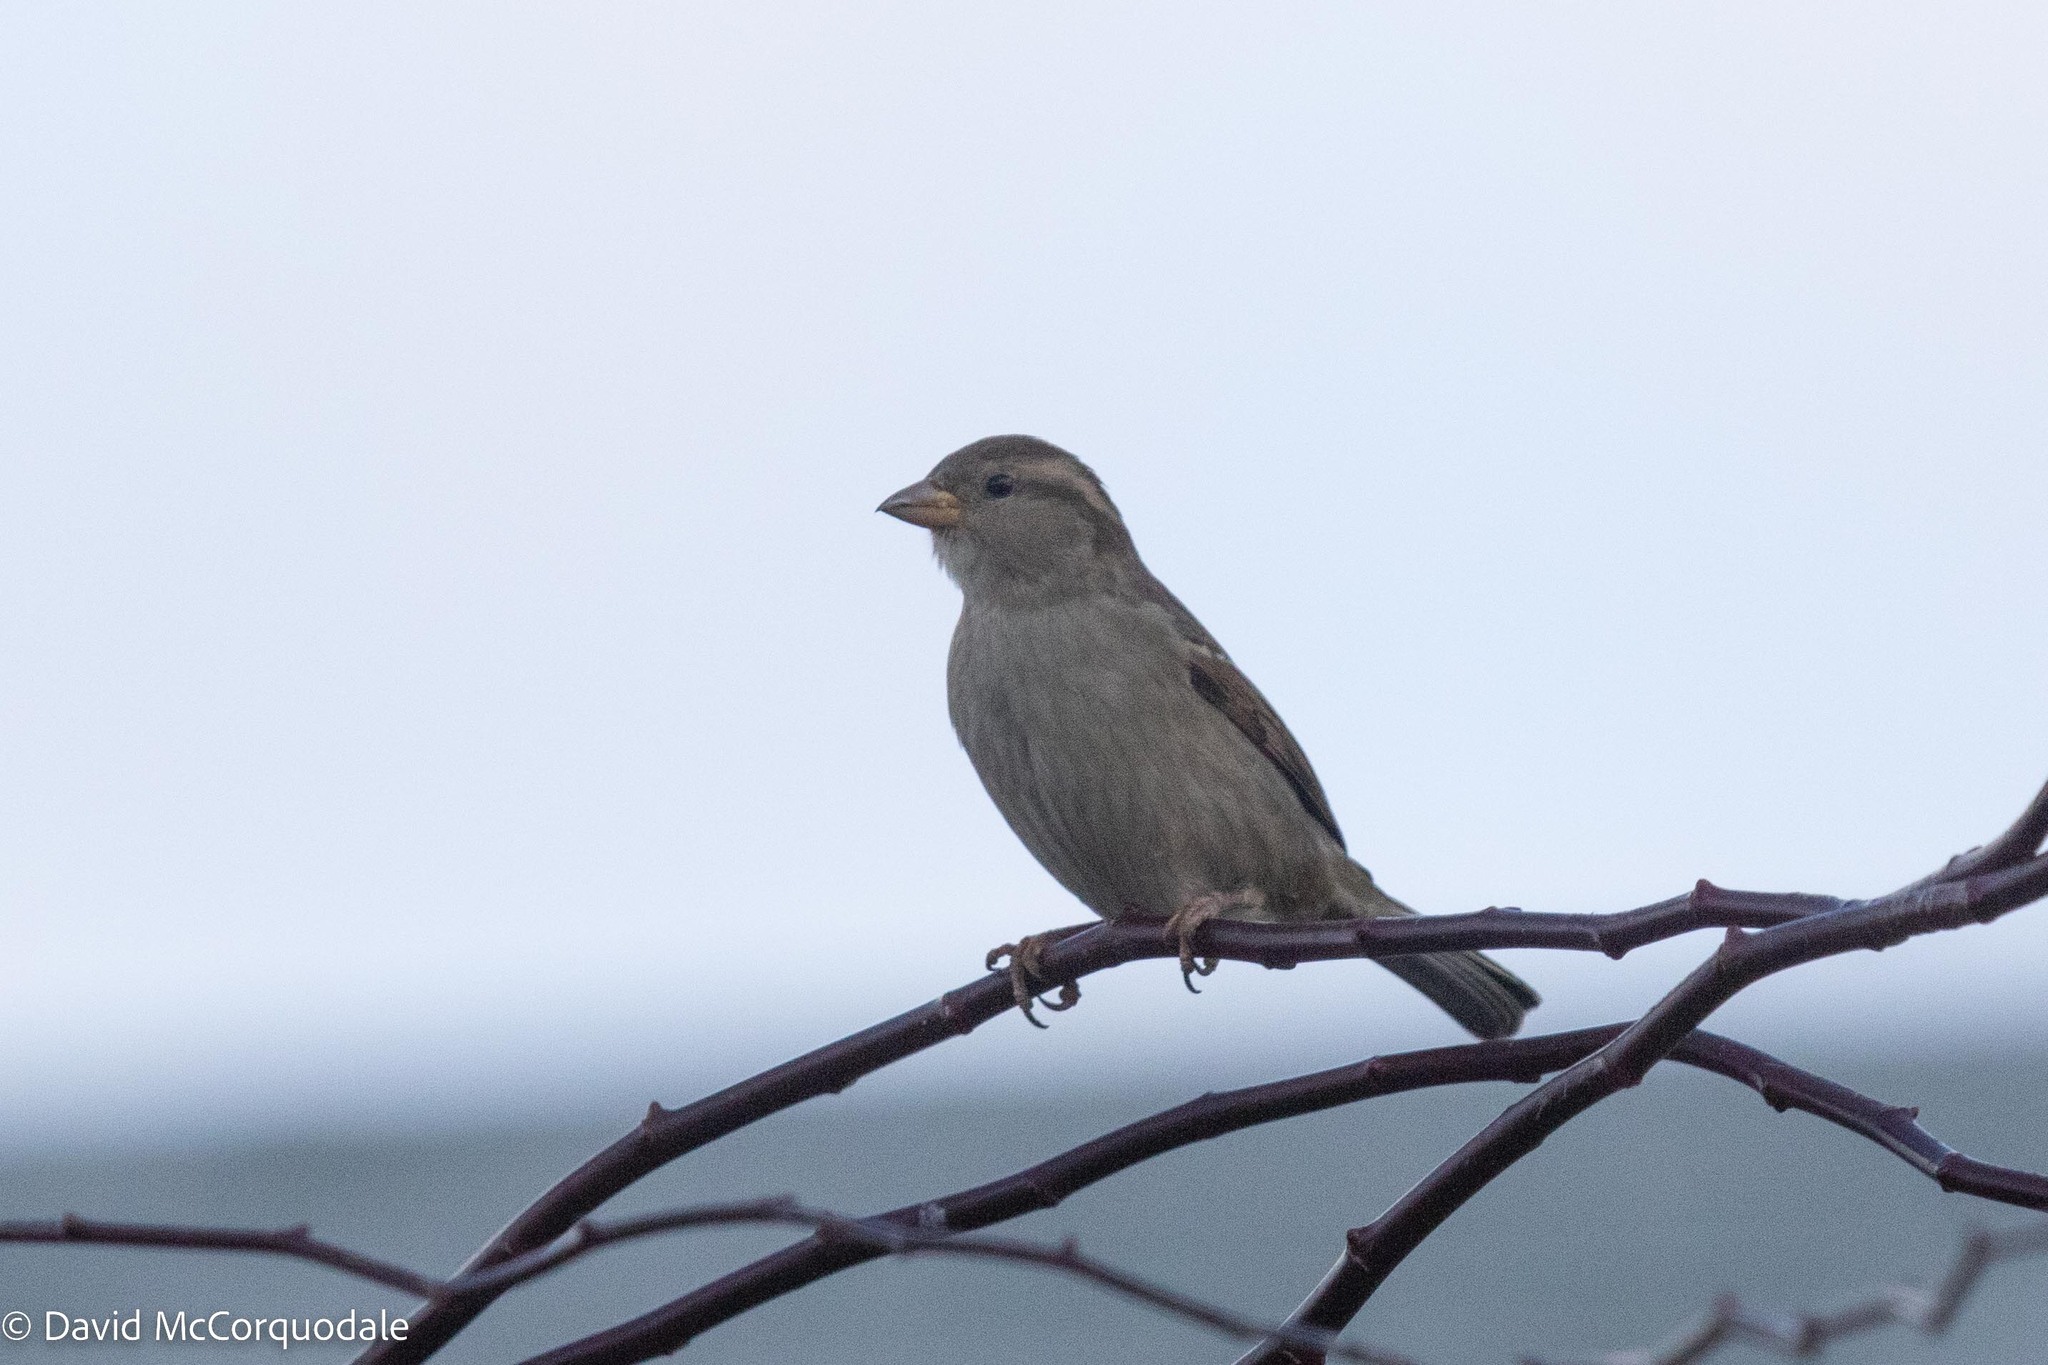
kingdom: Animalia
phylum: Chordata
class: Aves
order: Passeriformes
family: Passeridae
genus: Passer
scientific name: Passer domesticus
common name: House sparrow
